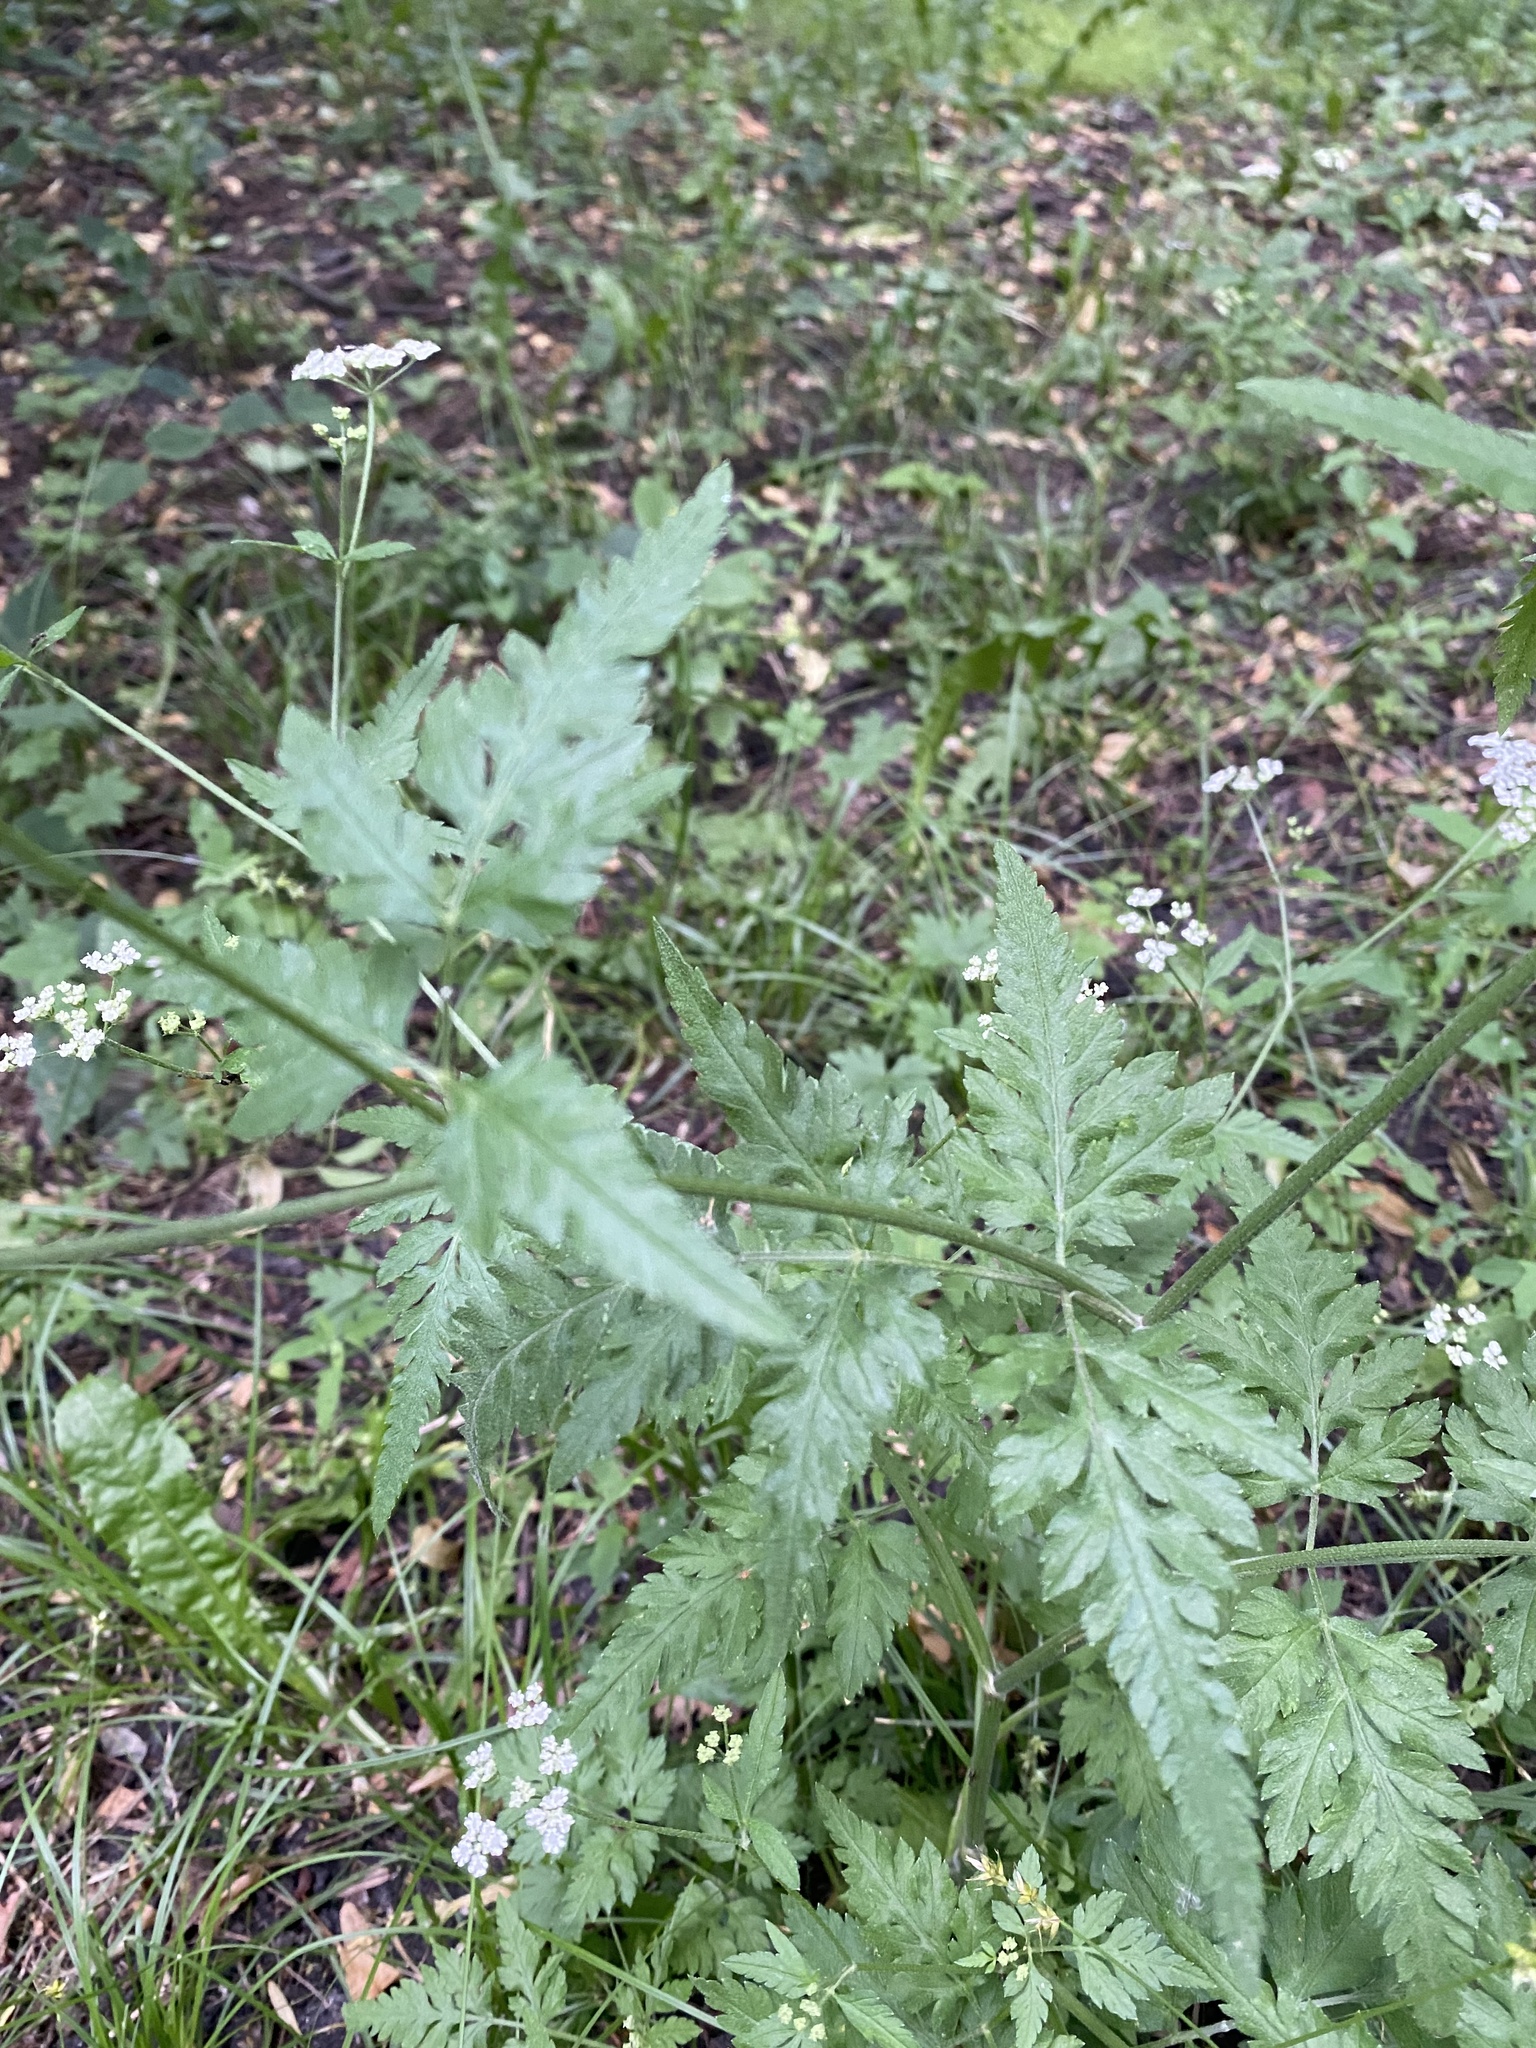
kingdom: Plantae
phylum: Tracheophyta
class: Magnoliopsida
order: Apiales
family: Apiaceae
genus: Torilis
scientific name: Torilis japonica
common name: Upright hedge-parsley
